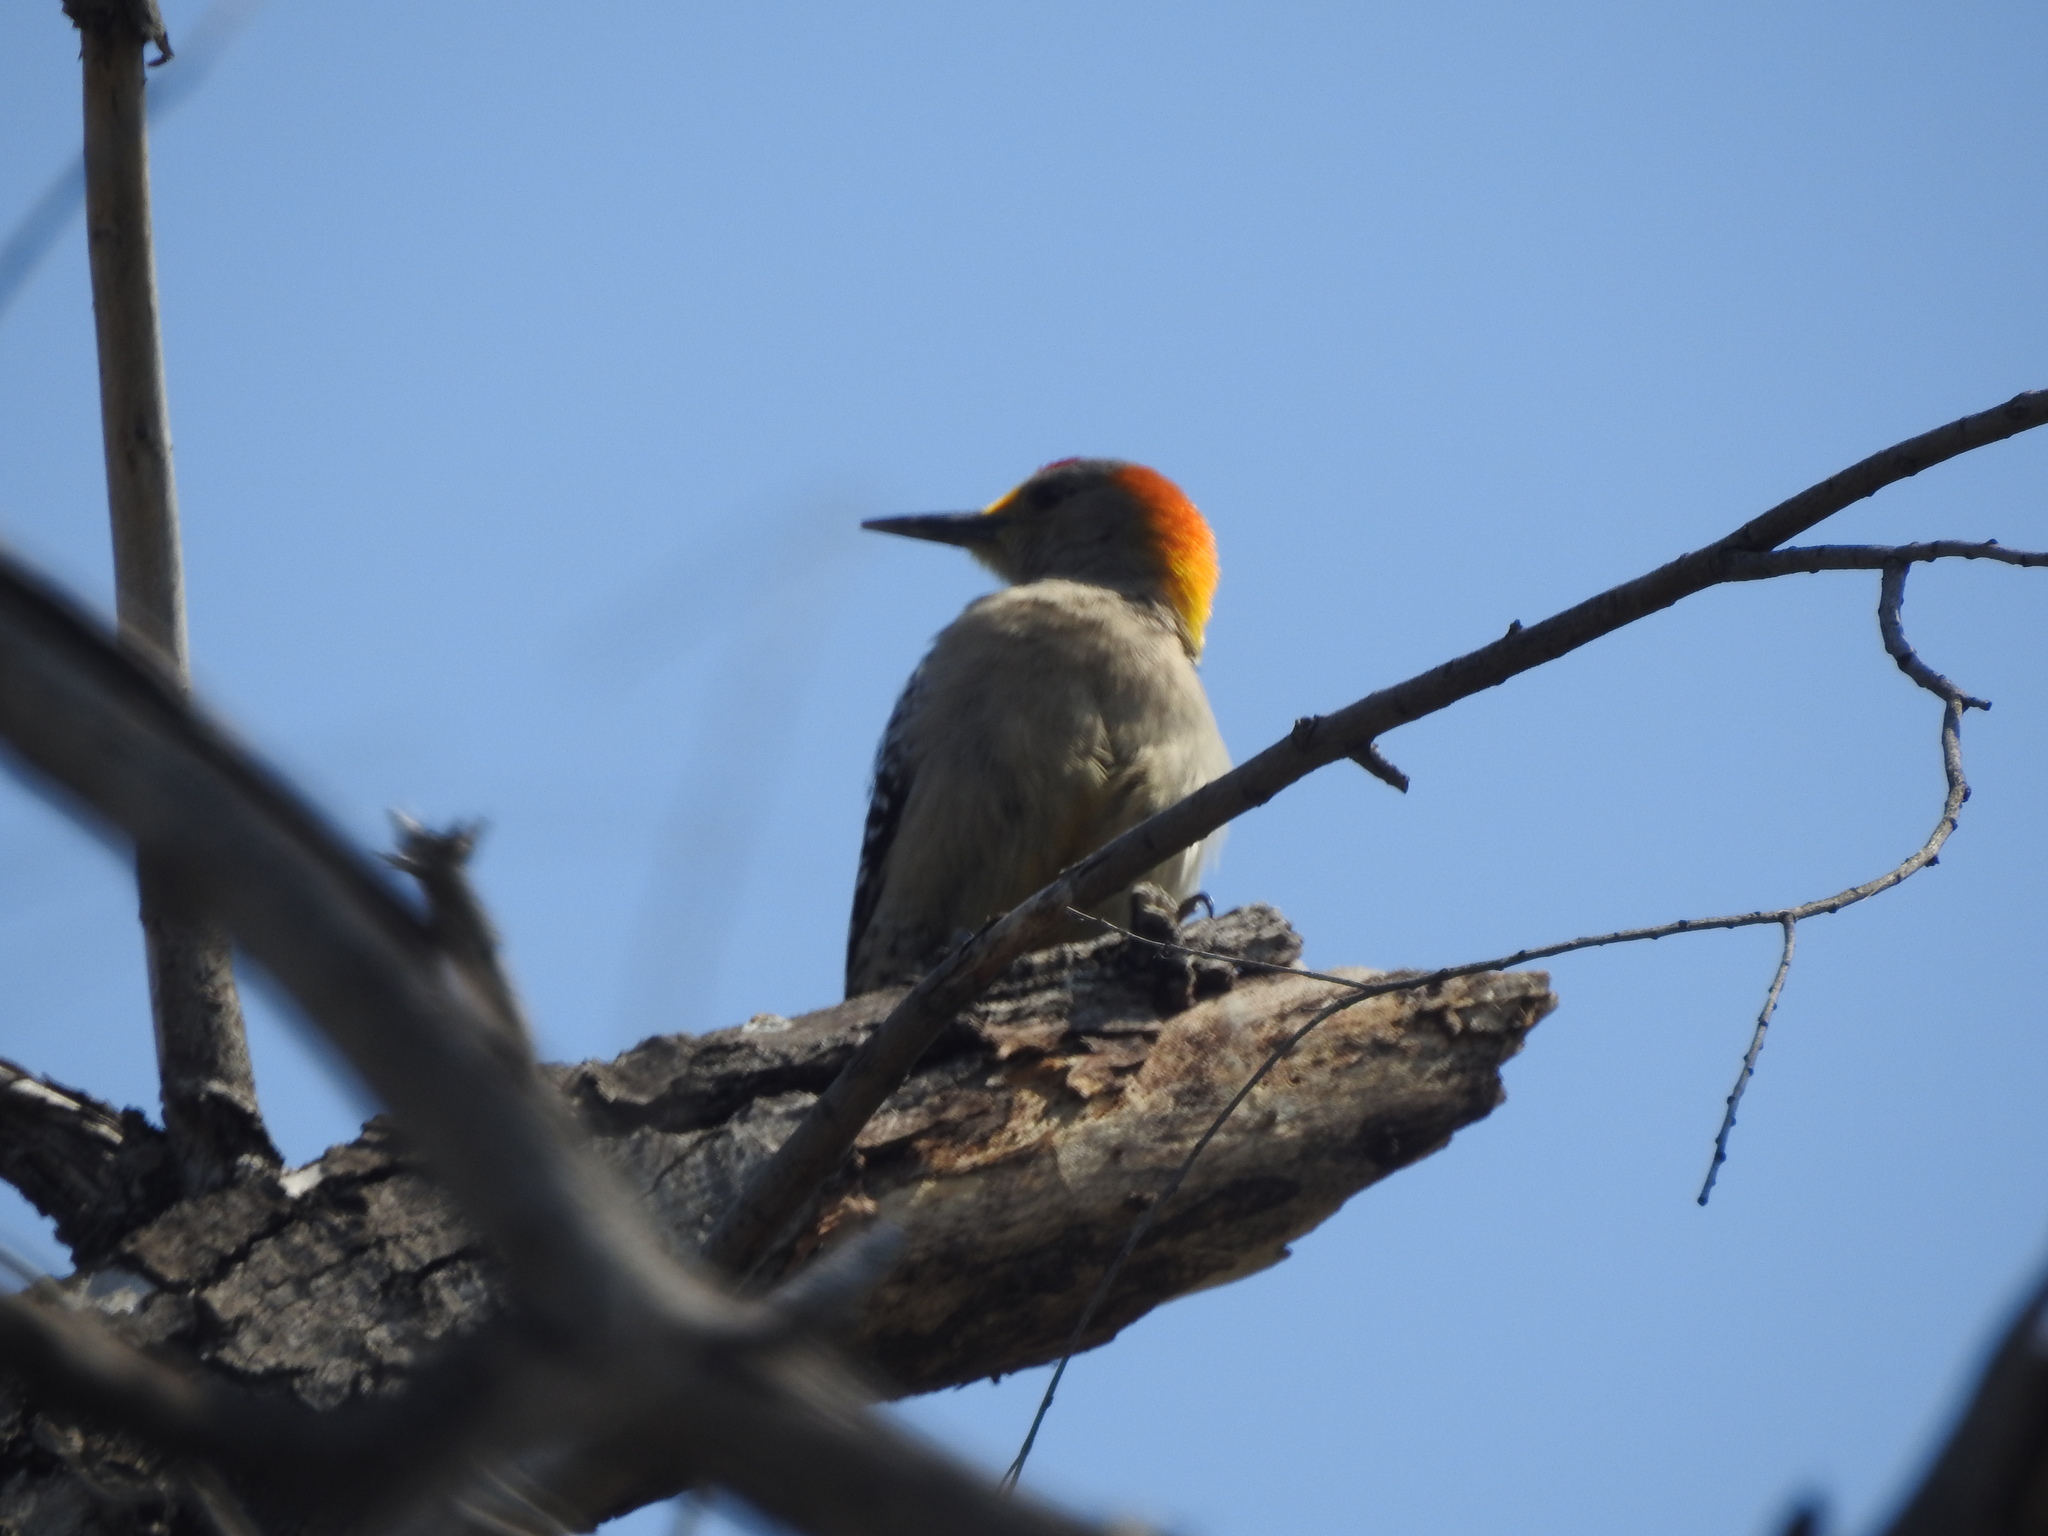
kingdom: Animalia
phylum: Chordata
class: Aves
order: Piciformes
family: Picidae
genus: Melanerpes
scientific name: Melanerpes aurifrons
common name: Golden-fronted woodpecker
